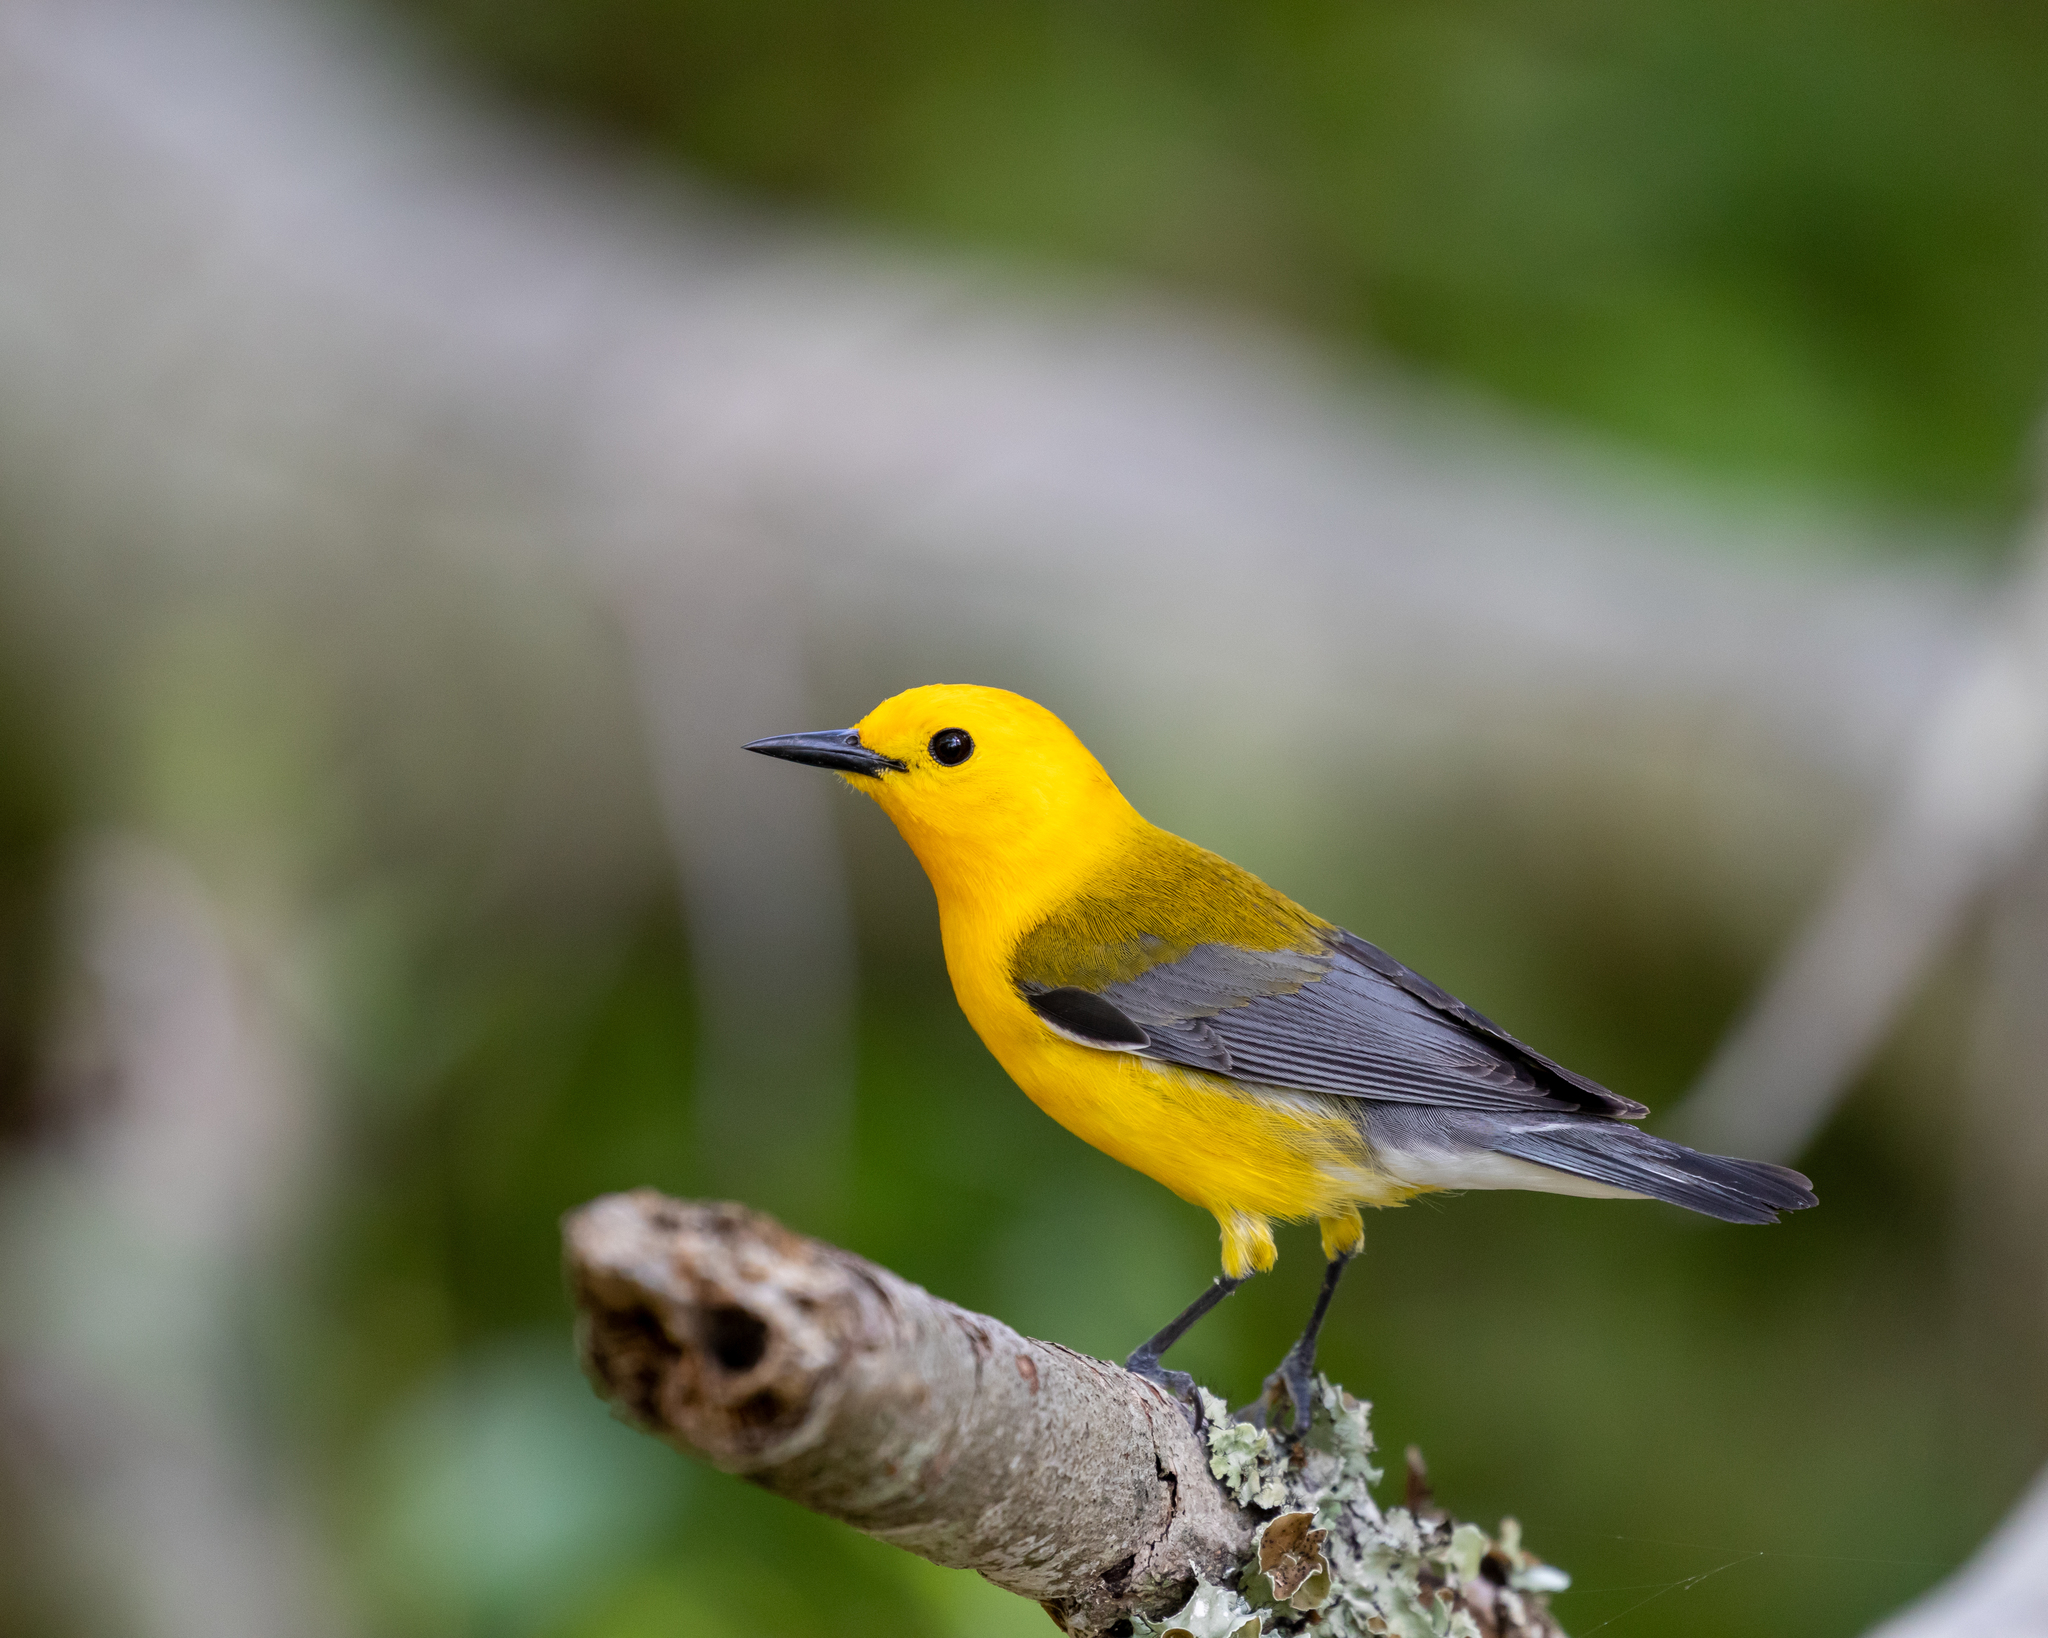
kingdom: Animalia
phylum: Chordata
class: Aves
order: Passeriformes
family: Parulidae
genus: Protonotaria
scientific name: Protonotaria citrea
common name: Prothonotary warbler
